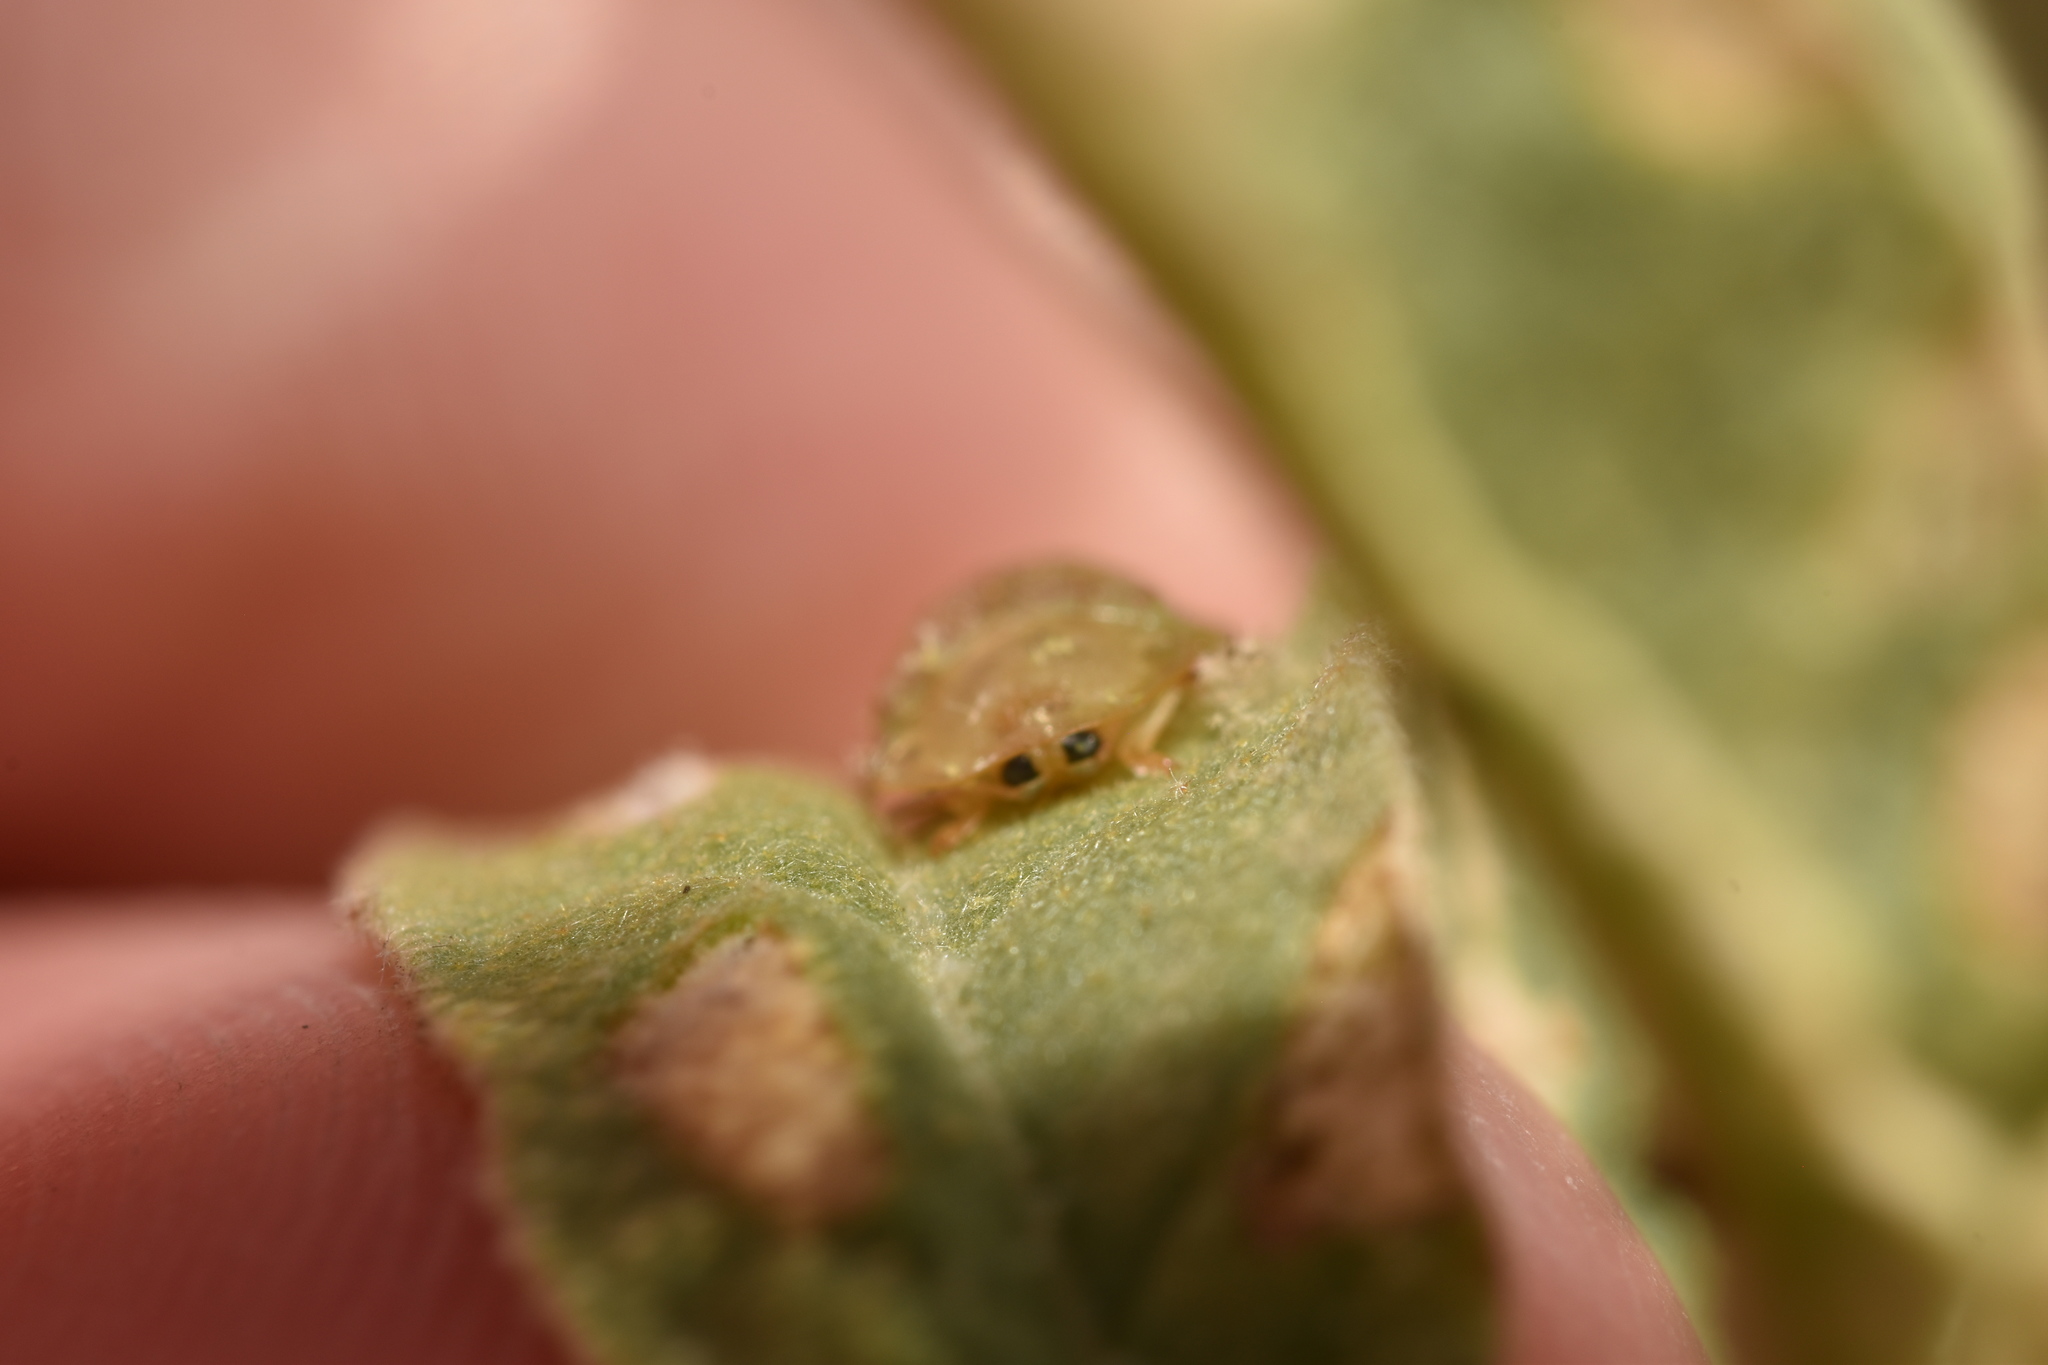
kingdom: Animalia
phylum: Arthropoda
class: Insecta
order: Coleoptera
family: Chrysomelidae
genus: Gratiana
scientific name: Gratiana pallidula
